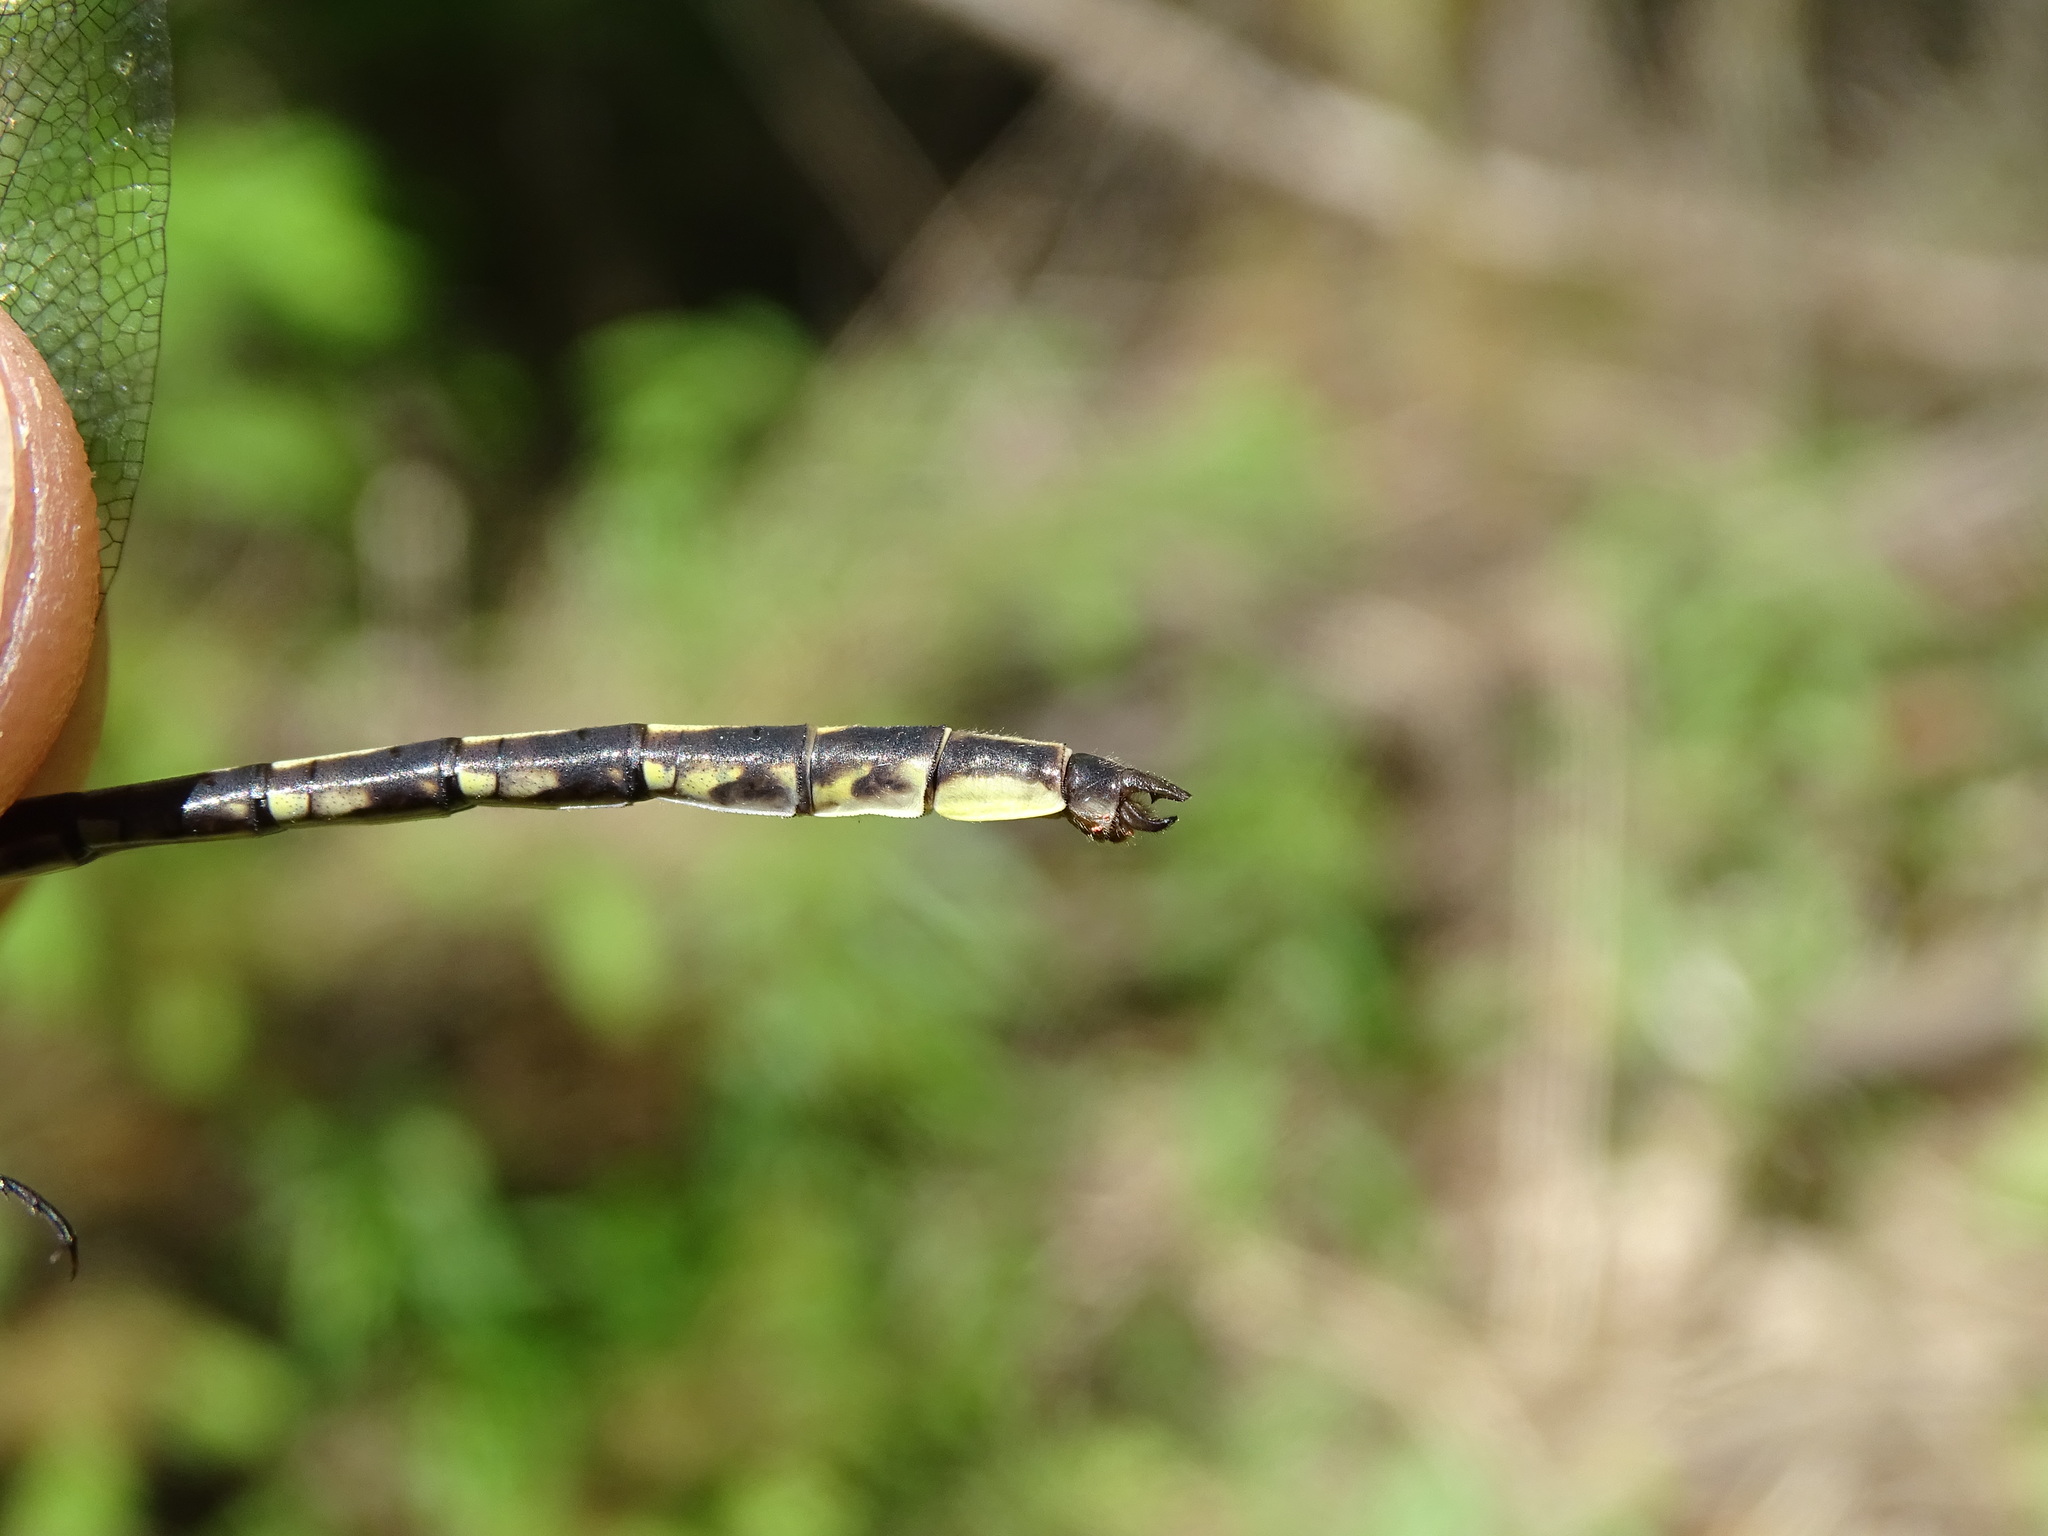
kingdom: Animalia
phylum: Arthropoda
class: Insecta
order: Odonata
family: Gomphidae
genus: Phanogomphus
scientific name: Phanogomphus spicatus
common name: Dusky clubtail
